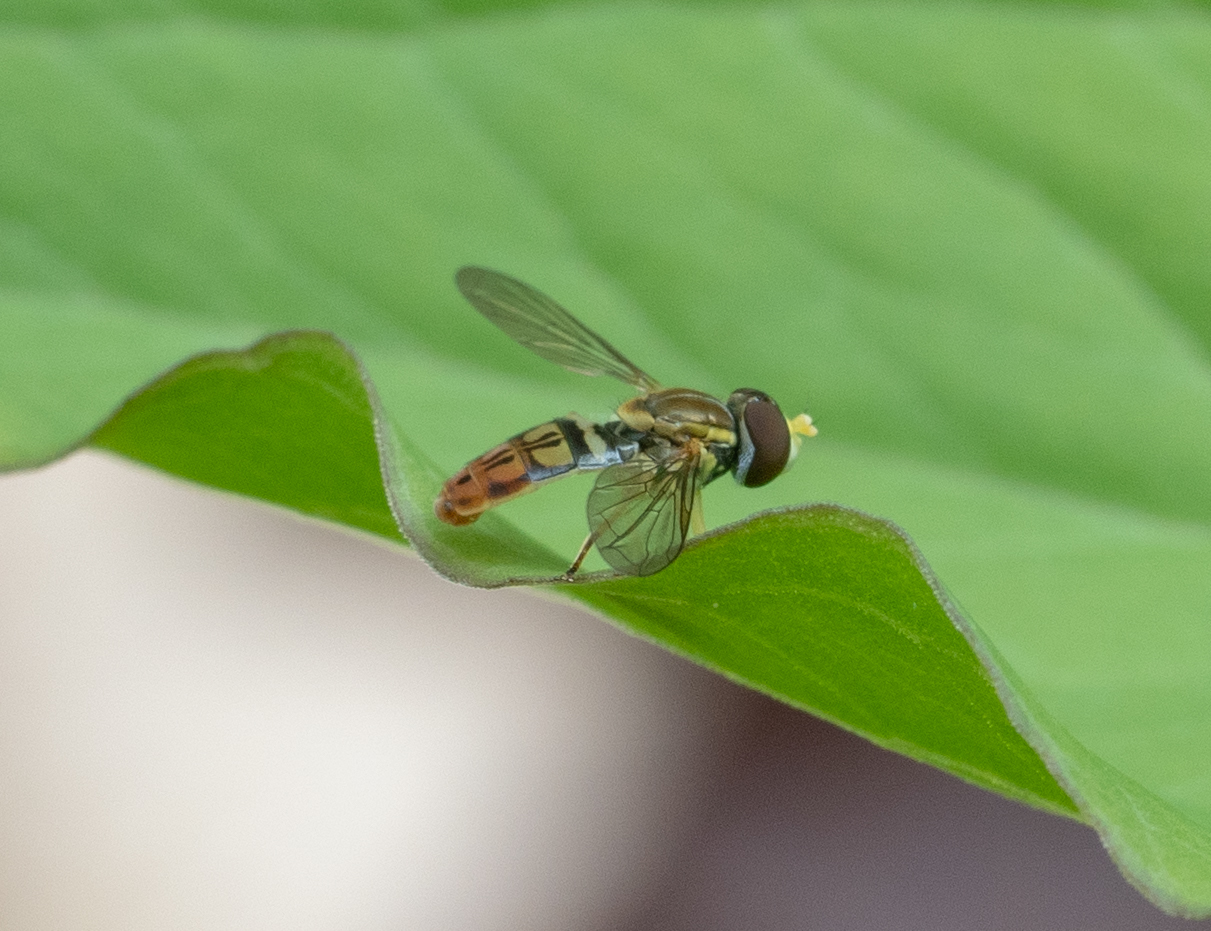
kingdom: Animalia
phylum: Arthropoda
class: Insecta
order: Diptera
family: Syrphidae
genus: Toxomerus
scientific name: Toxomerus marginatus
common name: Syrphid fly
